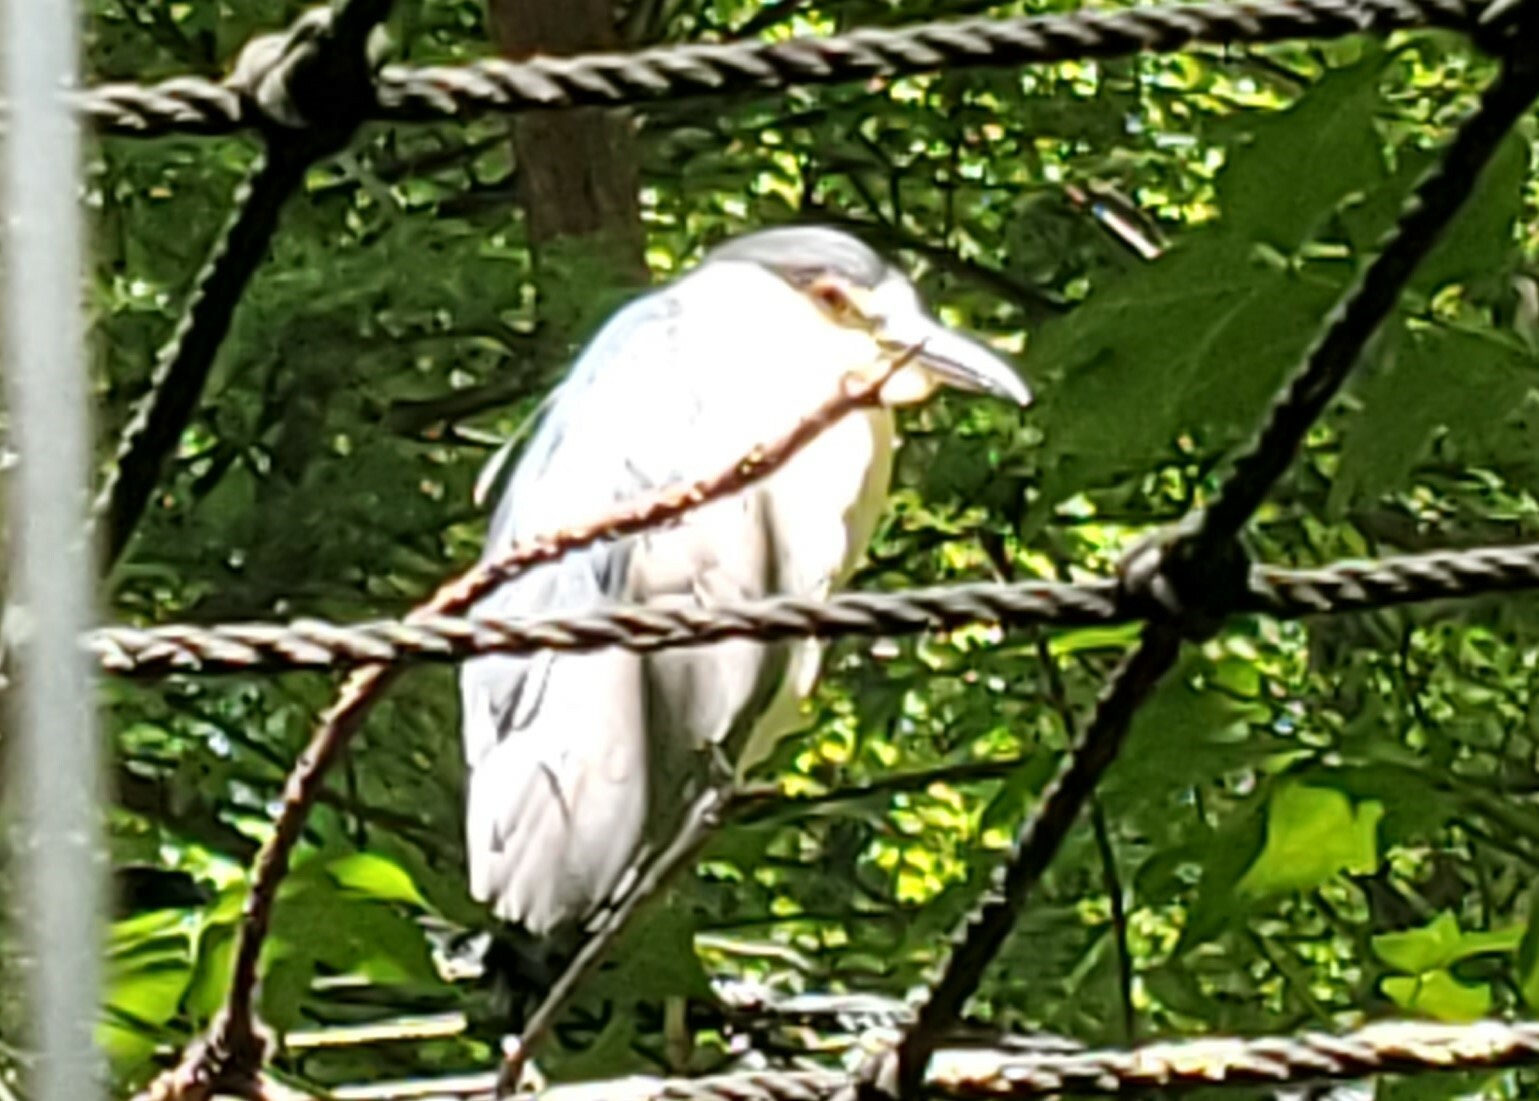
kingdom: Animalia
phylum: Chordata
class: Aves
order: Pelecaniformes
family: Ardeidae
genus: Nycticorax
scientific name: Nycticorax nycticorax
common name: Black-crowned night heron
